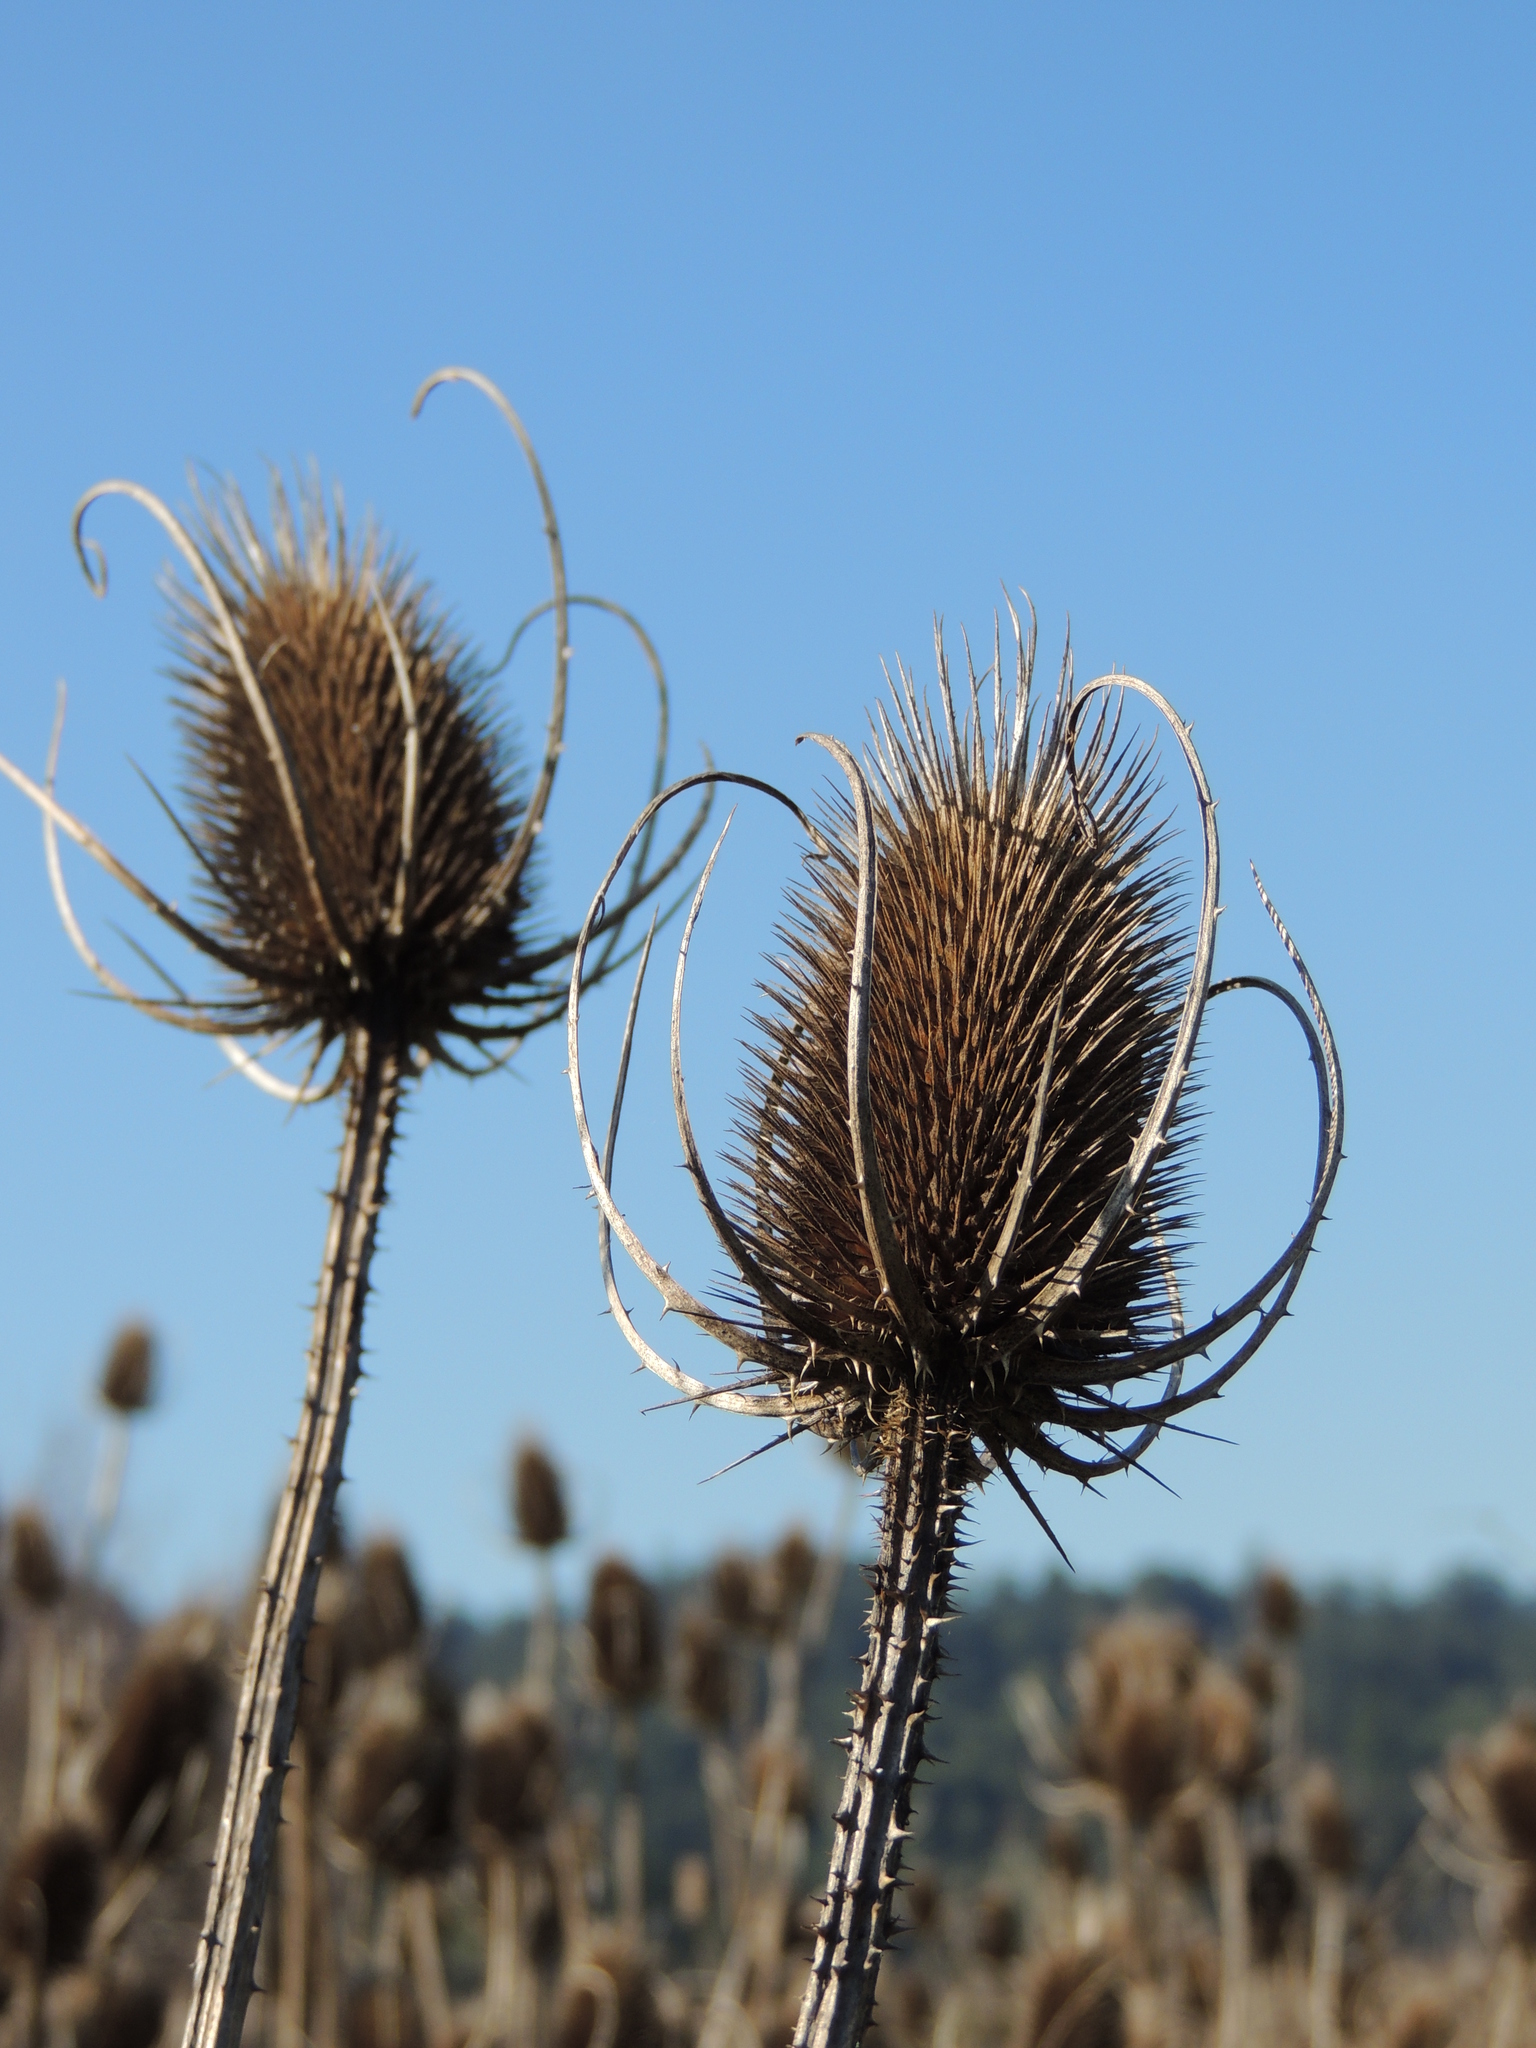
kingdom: Plantae
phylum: Tracheophyta
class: Magnoliopsida
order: Dipsacales
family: Caprifoliaceae
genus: Dipsacus
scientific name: Dipsacus fullonum
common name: Teasel
